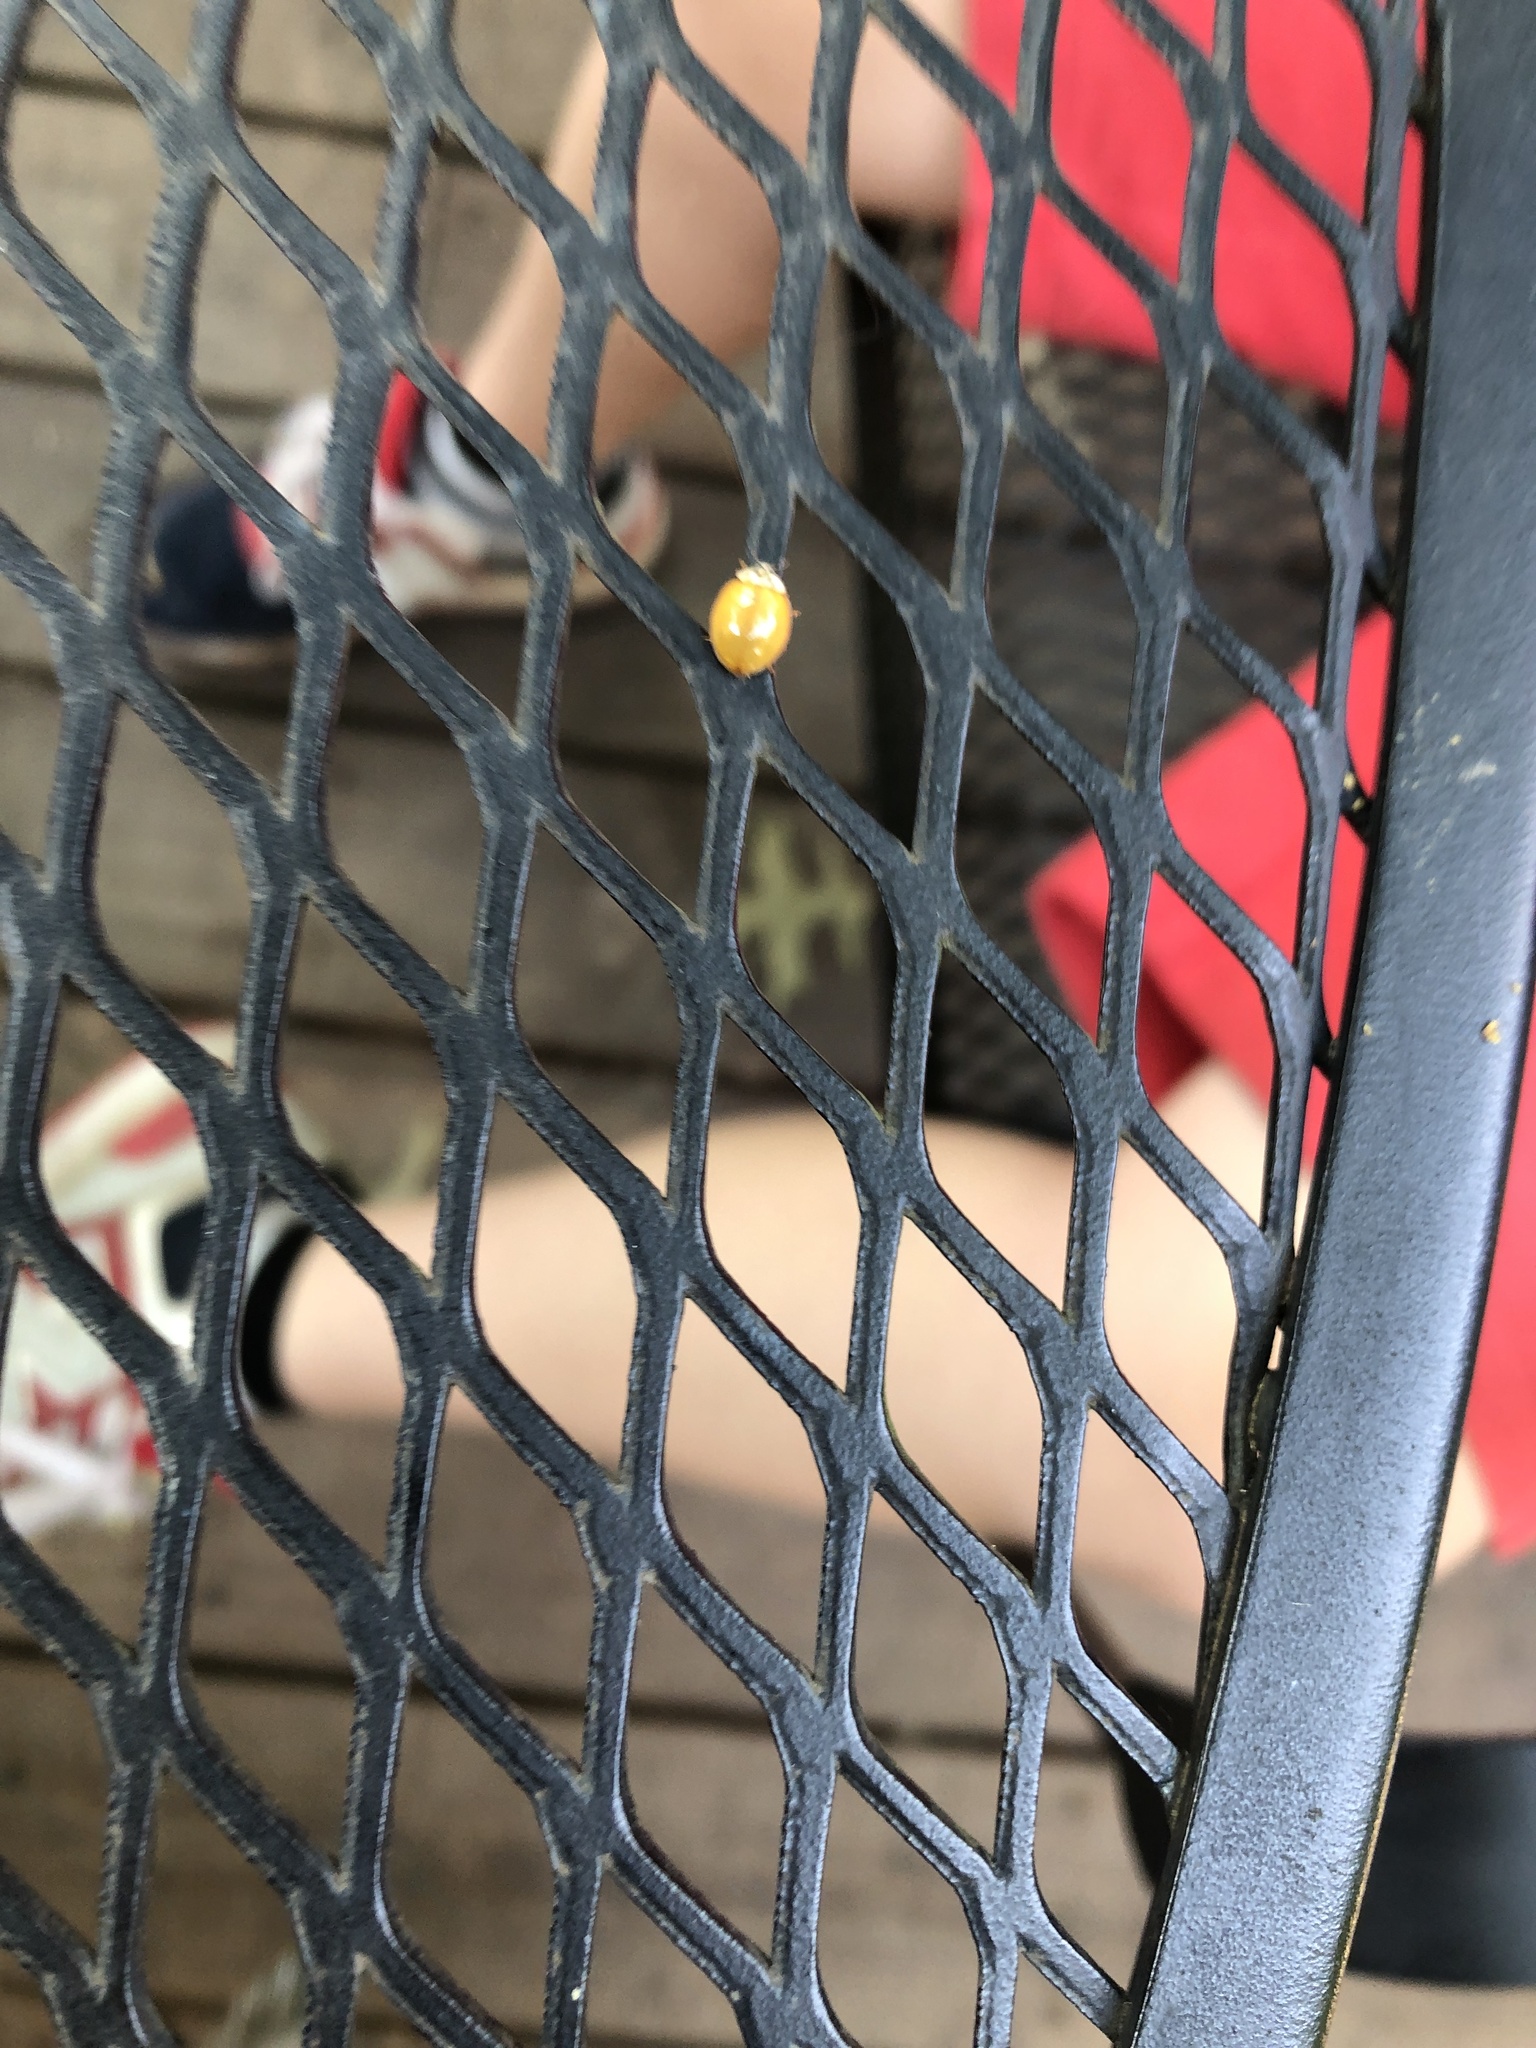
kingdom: Animalia
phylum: Arthropoda
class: Insecta
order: Coleoptera
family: Coccinellidae
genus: Harmonia
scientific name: Harmonia axyridis
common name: Harlequin ladybird
